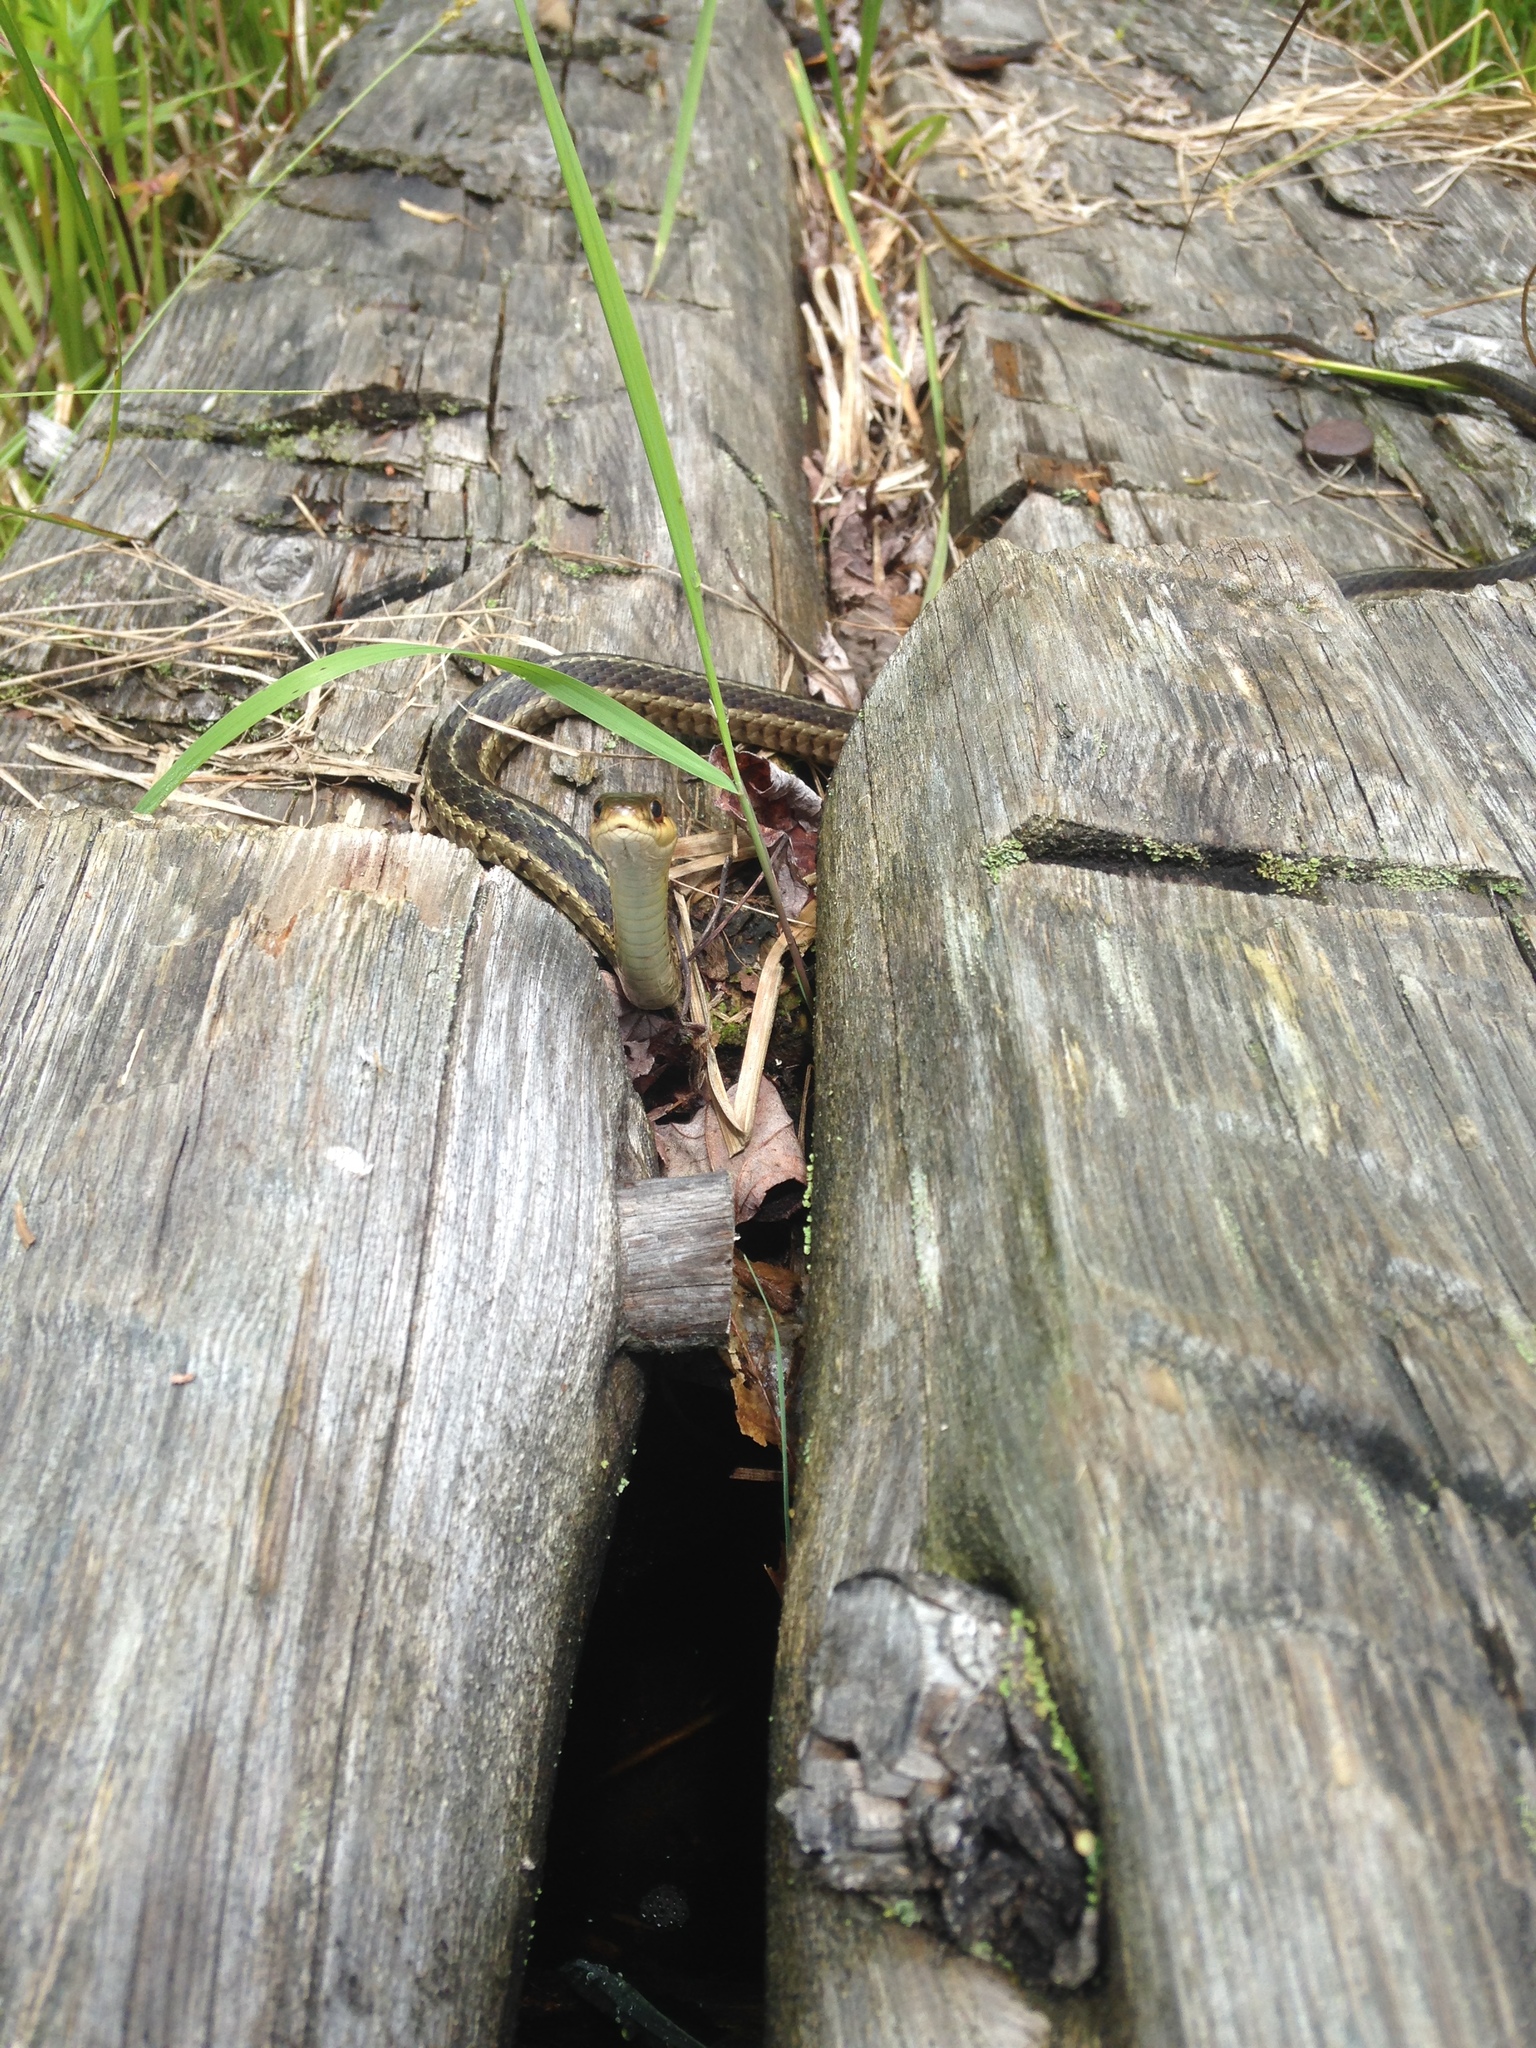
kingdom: Animalia
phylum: Chordata
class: Squamata
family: Colubridae
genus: Thamnophis
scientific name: Thamnophis sirtalis
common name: Common garter snake
